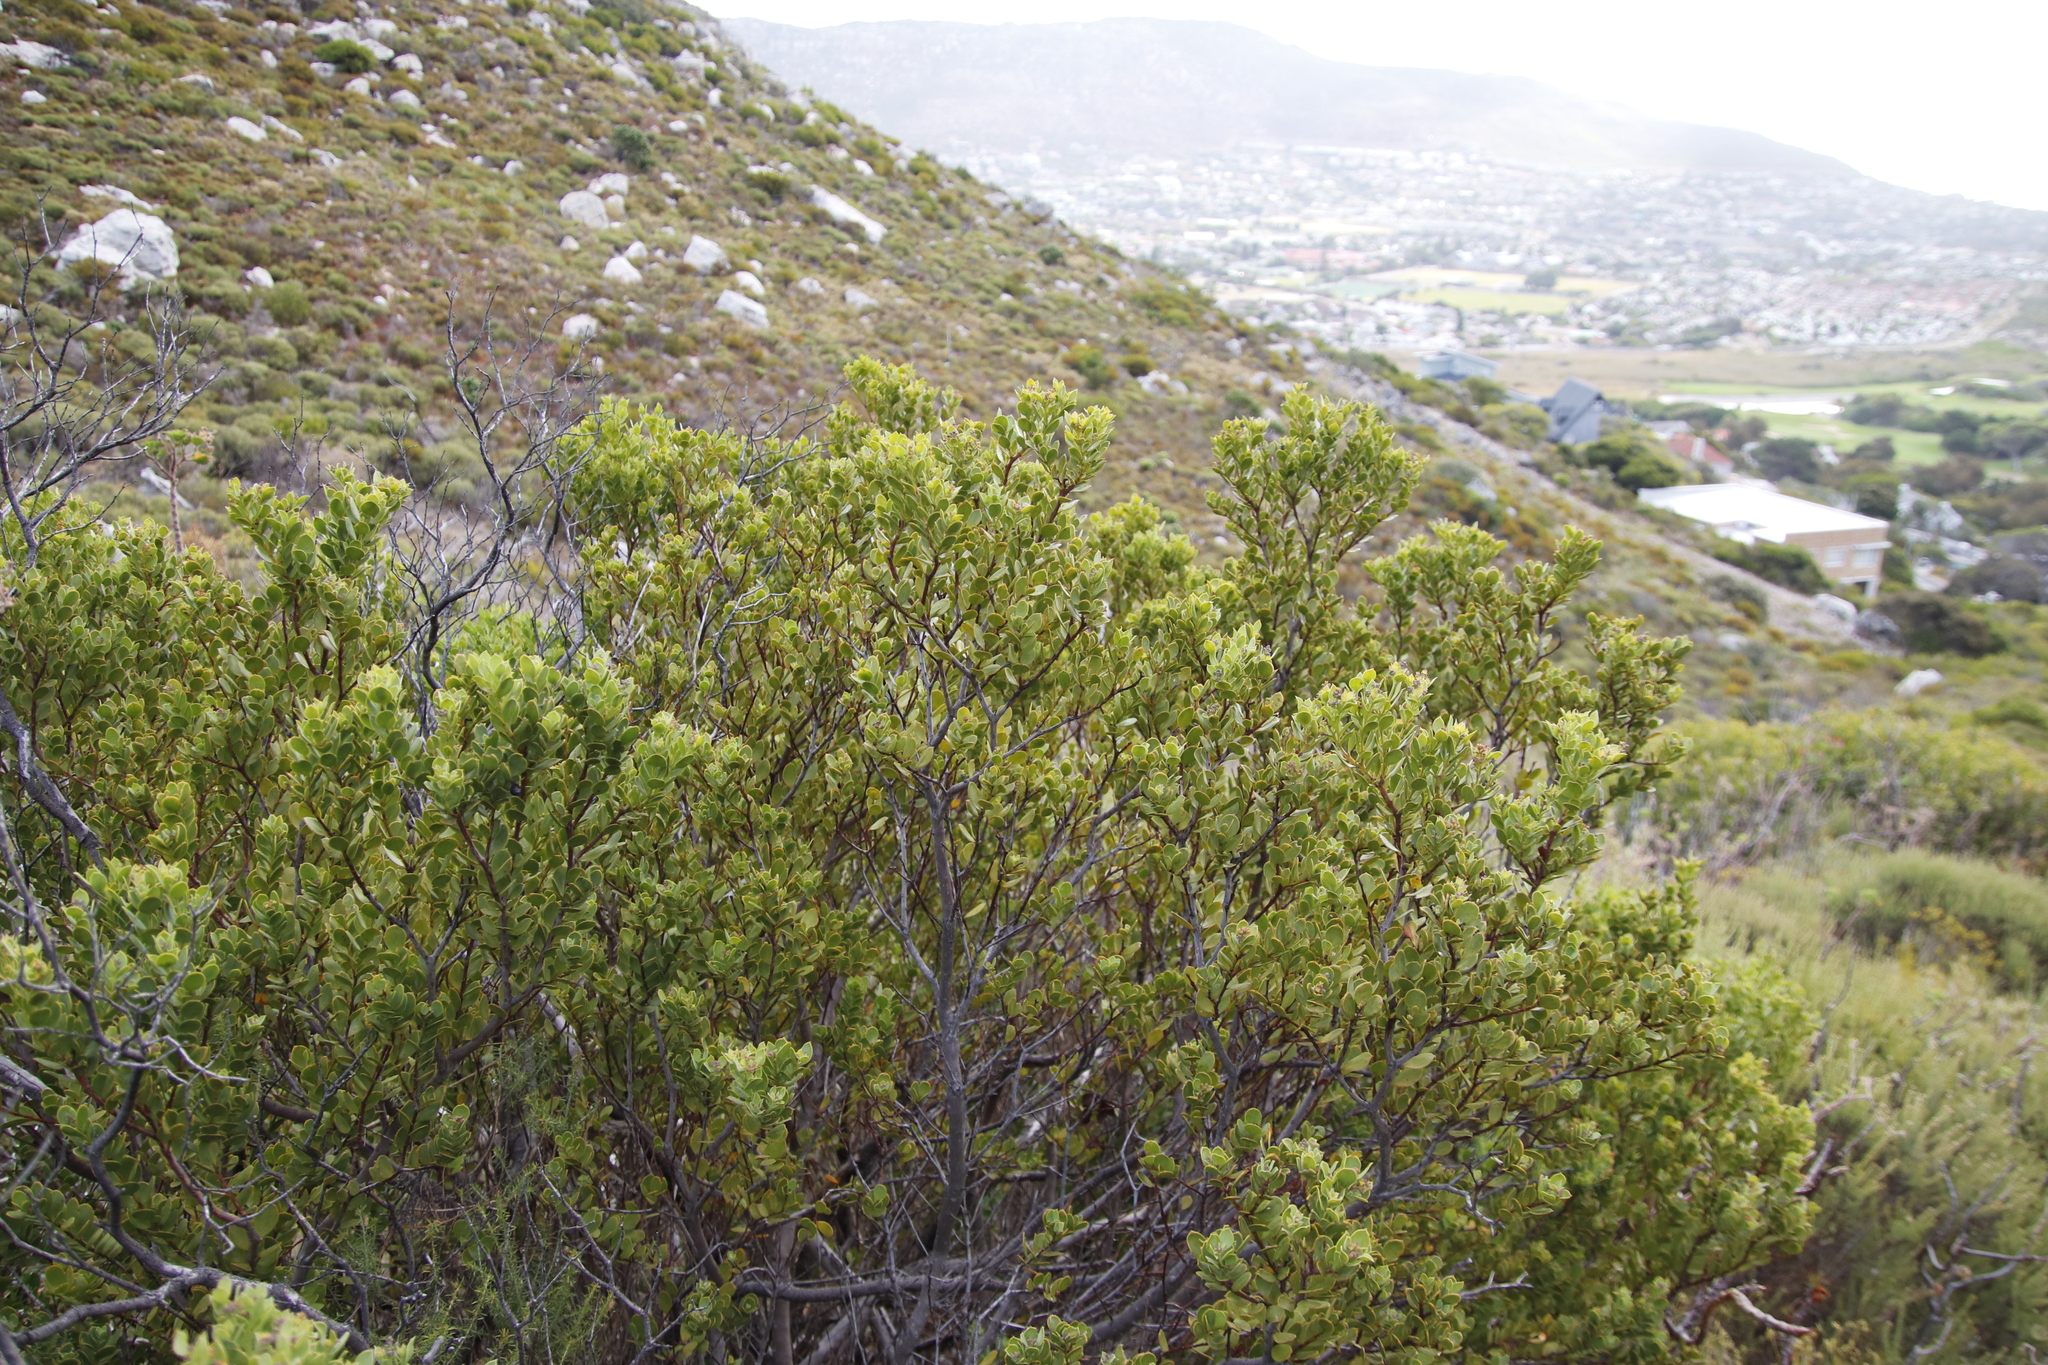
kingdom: Plantae
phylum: Tracheophyta
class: Magnoliopsida
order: Santalales
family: Santalaceae
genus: Osyris
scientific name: Osyris compressa
